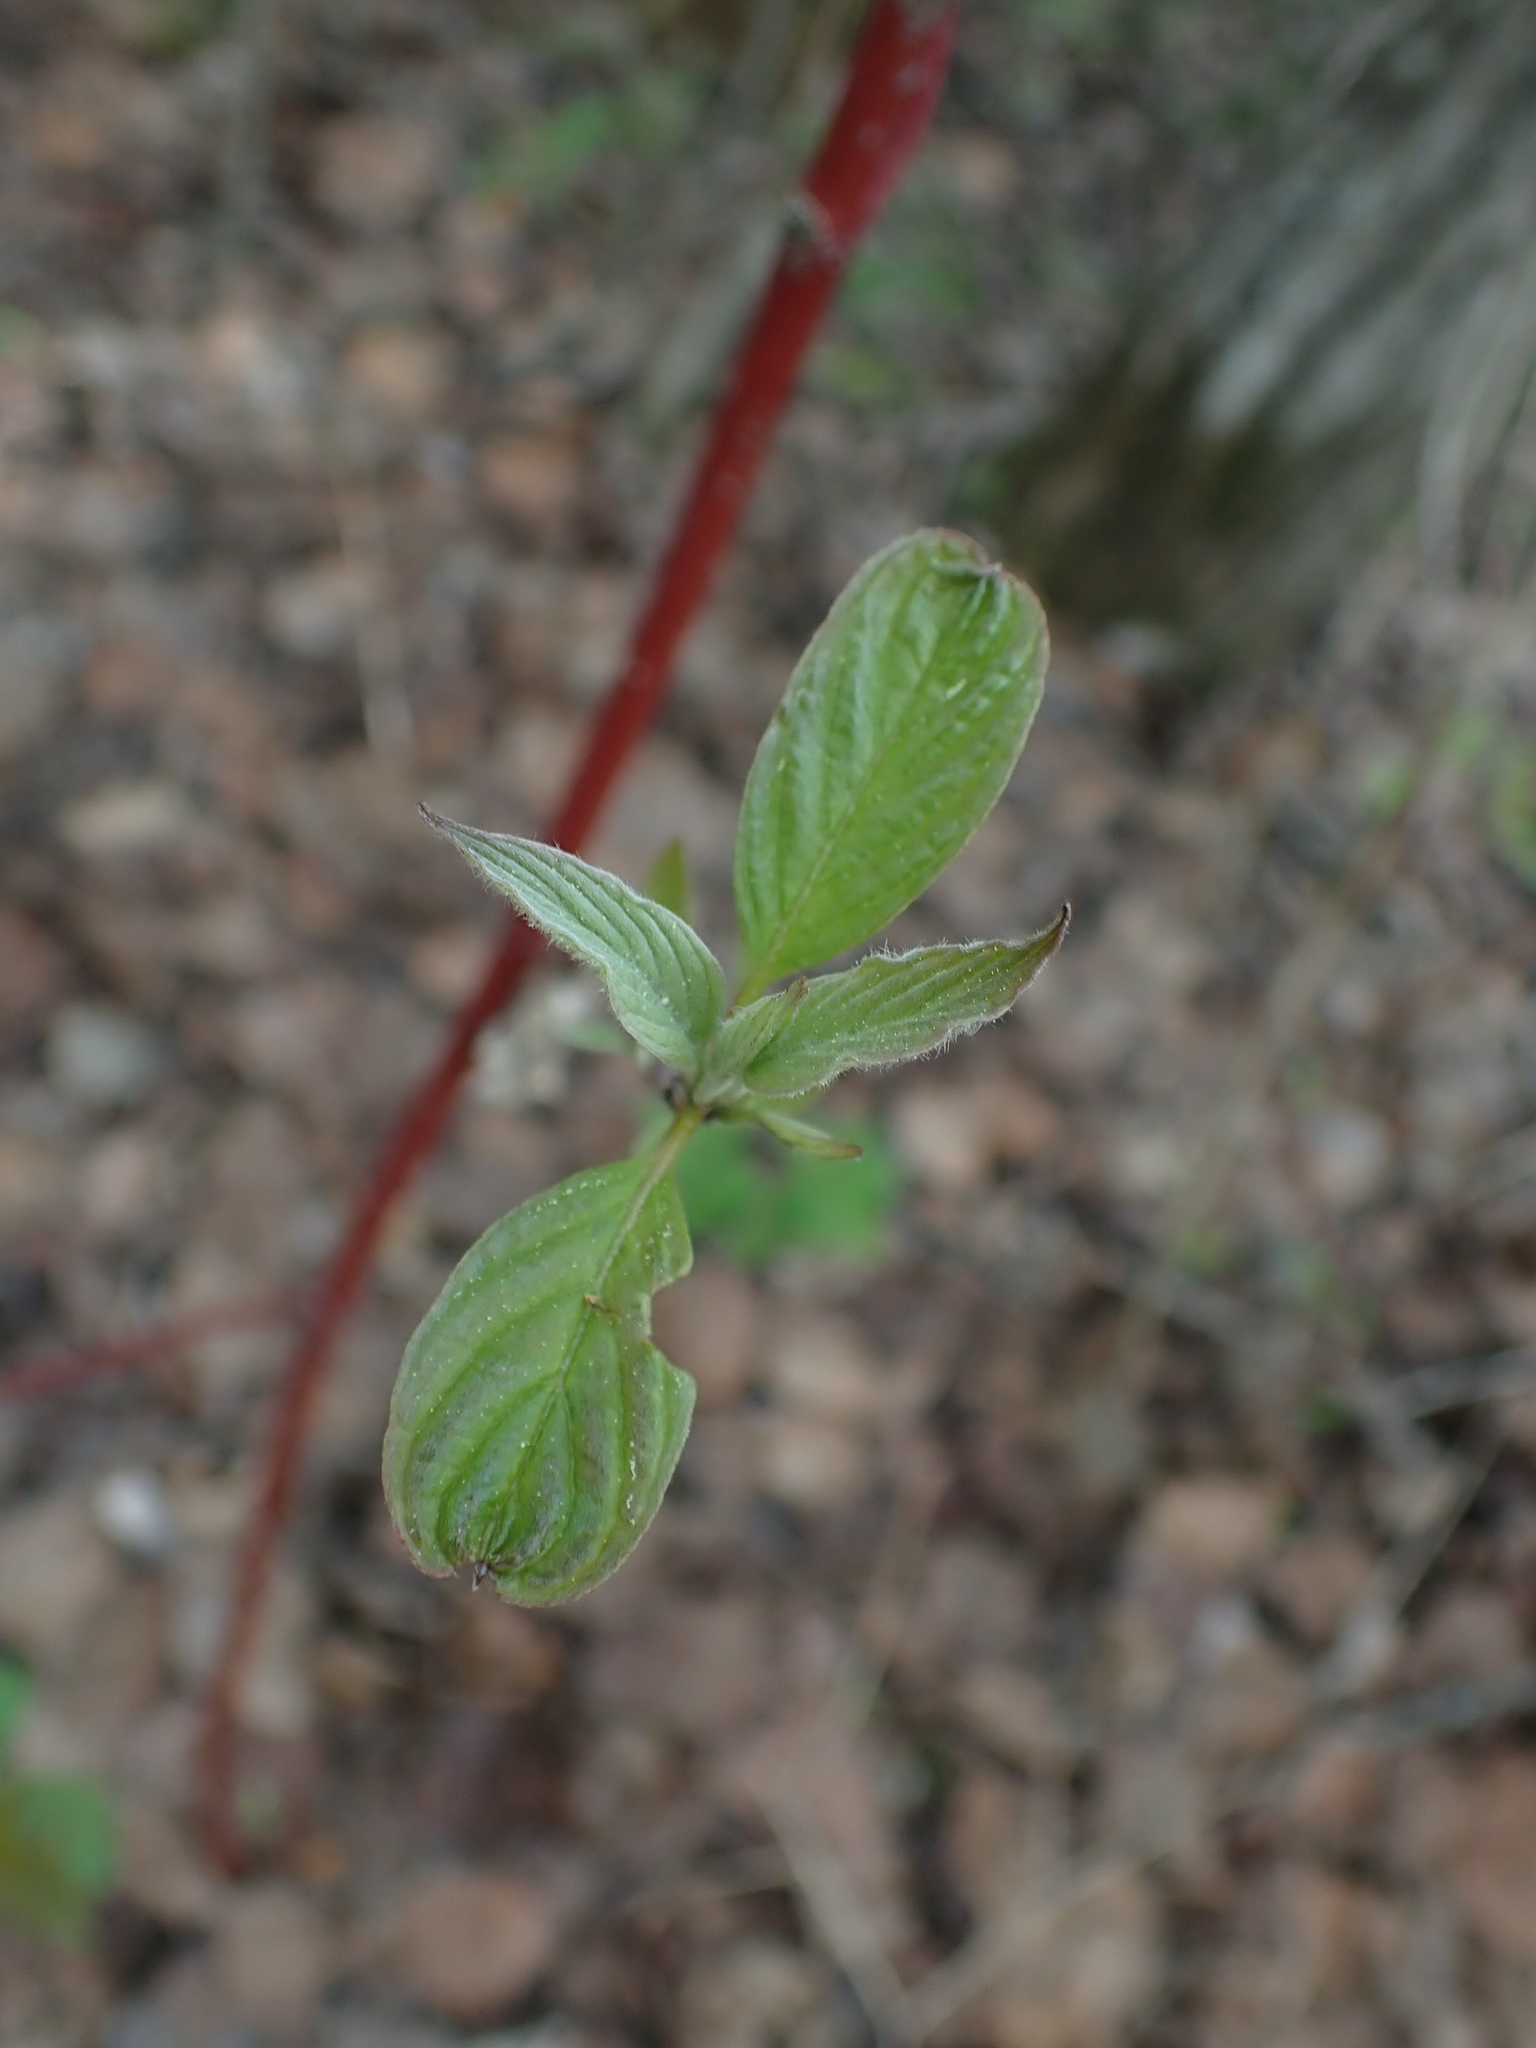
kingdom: Plantae
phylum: Tracheophyta
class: Magnoliopsida
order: Cornales
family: Cornaceae
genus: Cornus
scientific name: Cornus sericea
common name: Red-osier dogwood
